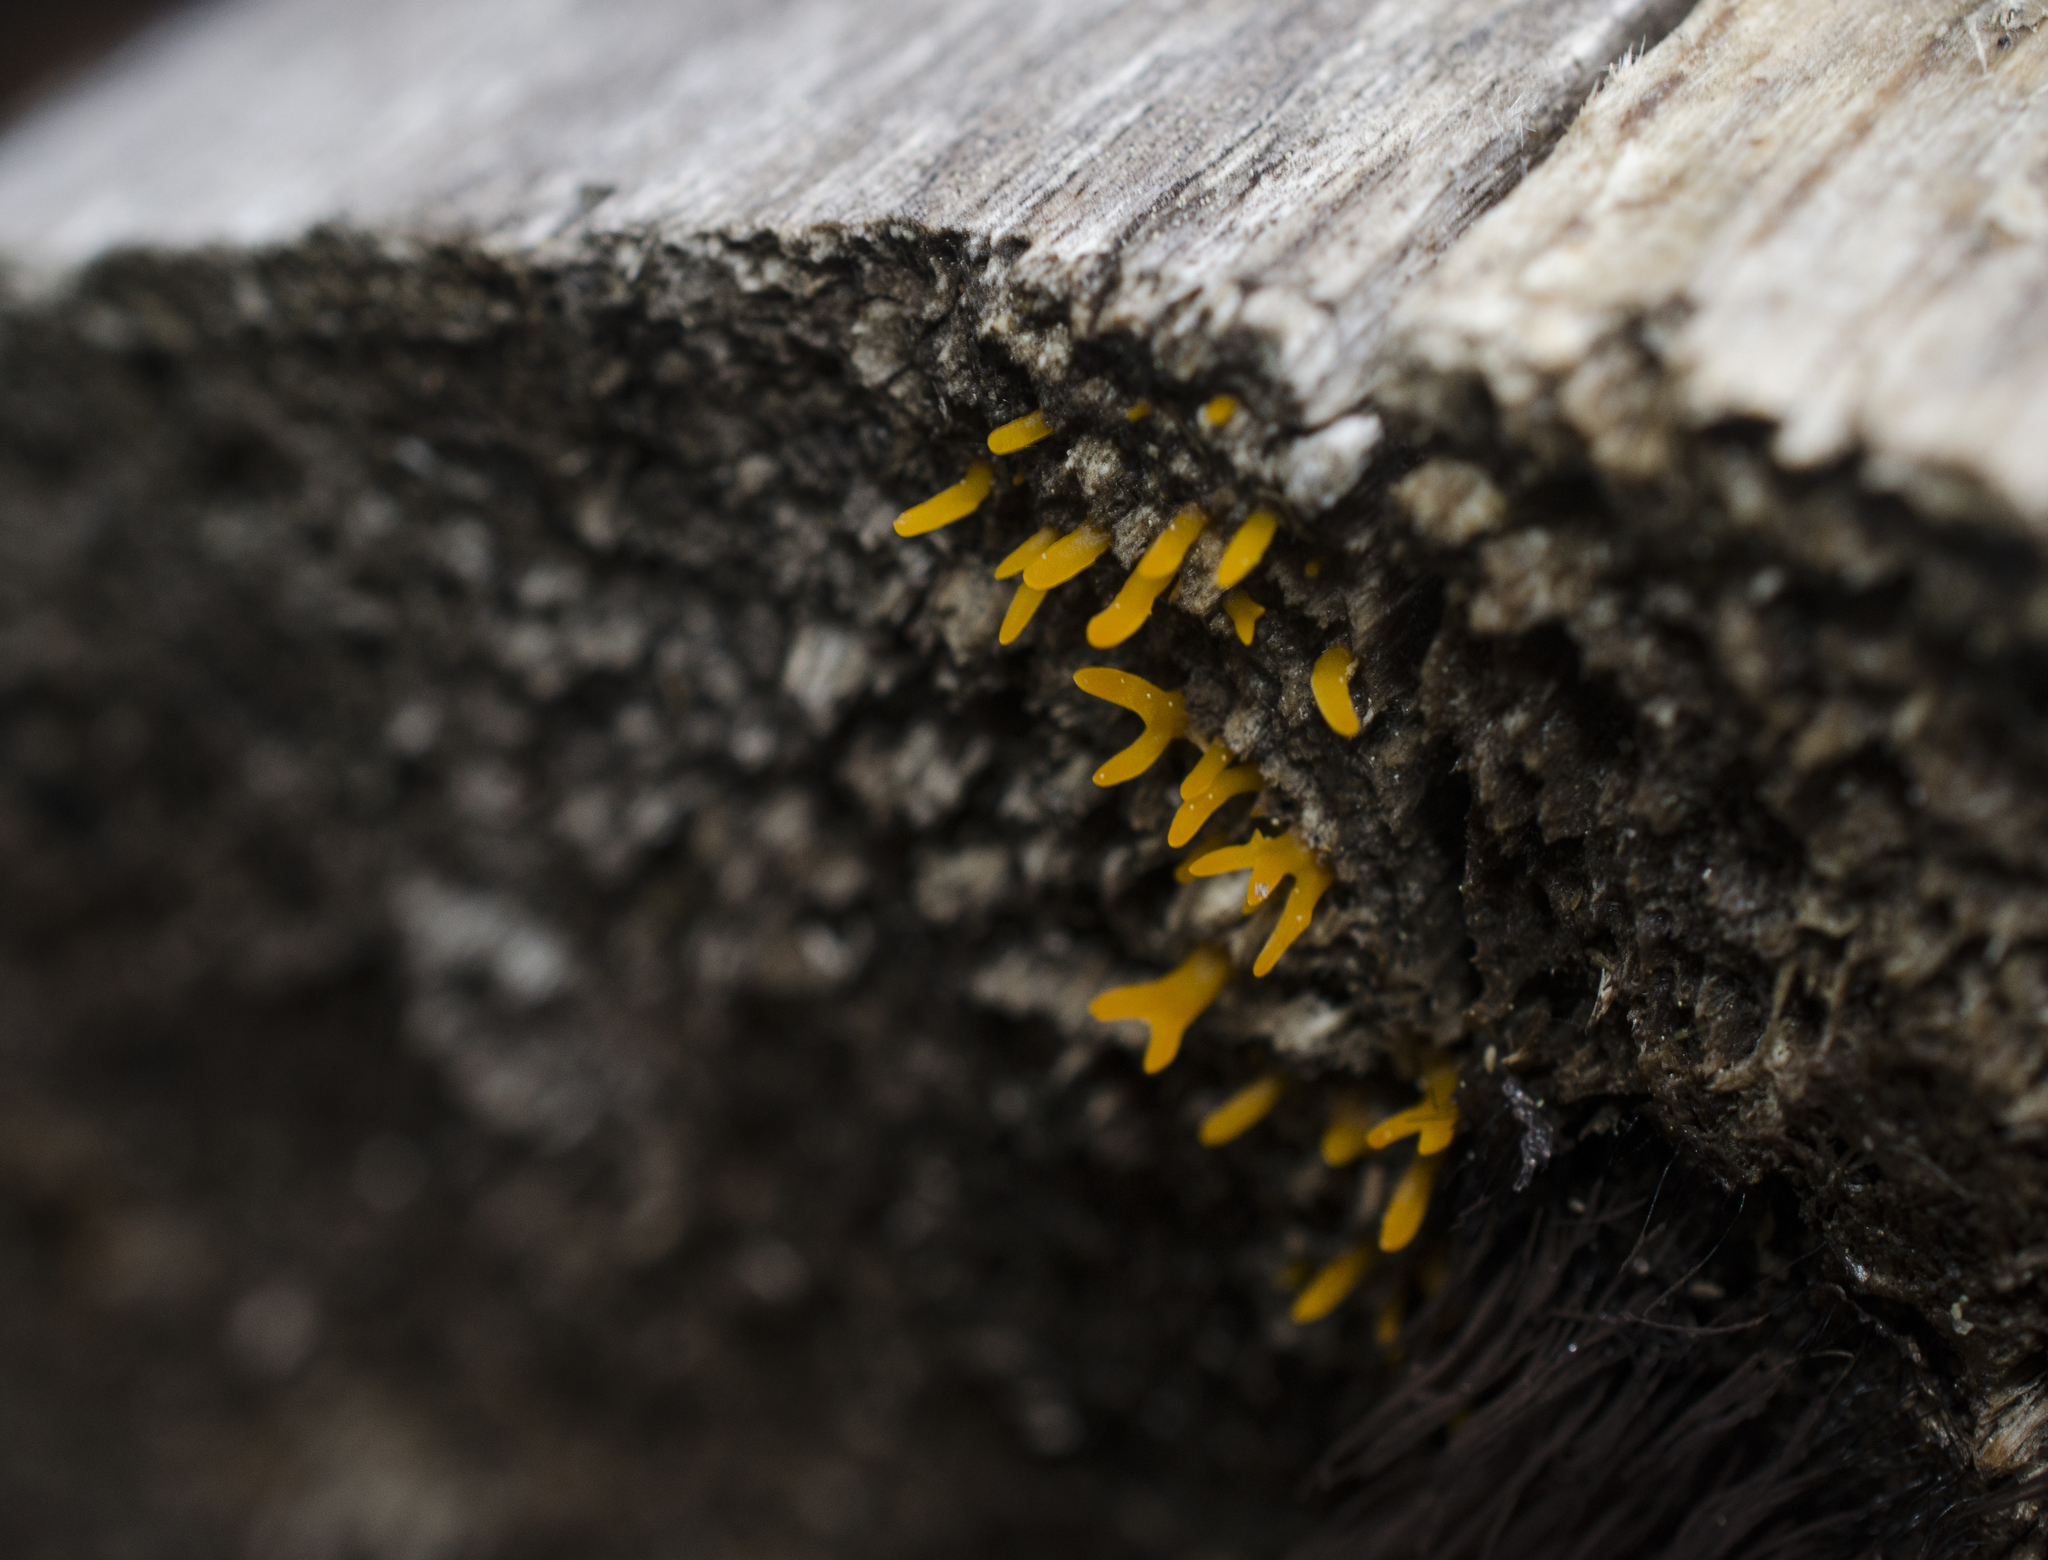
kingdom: Fungi
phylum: Basidiomycota
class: Dacrymycetes
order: Dacrymycetales
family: Dacrymycetaceae
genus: Calocera
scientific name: Calocera cornea
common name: Small stagshorn
